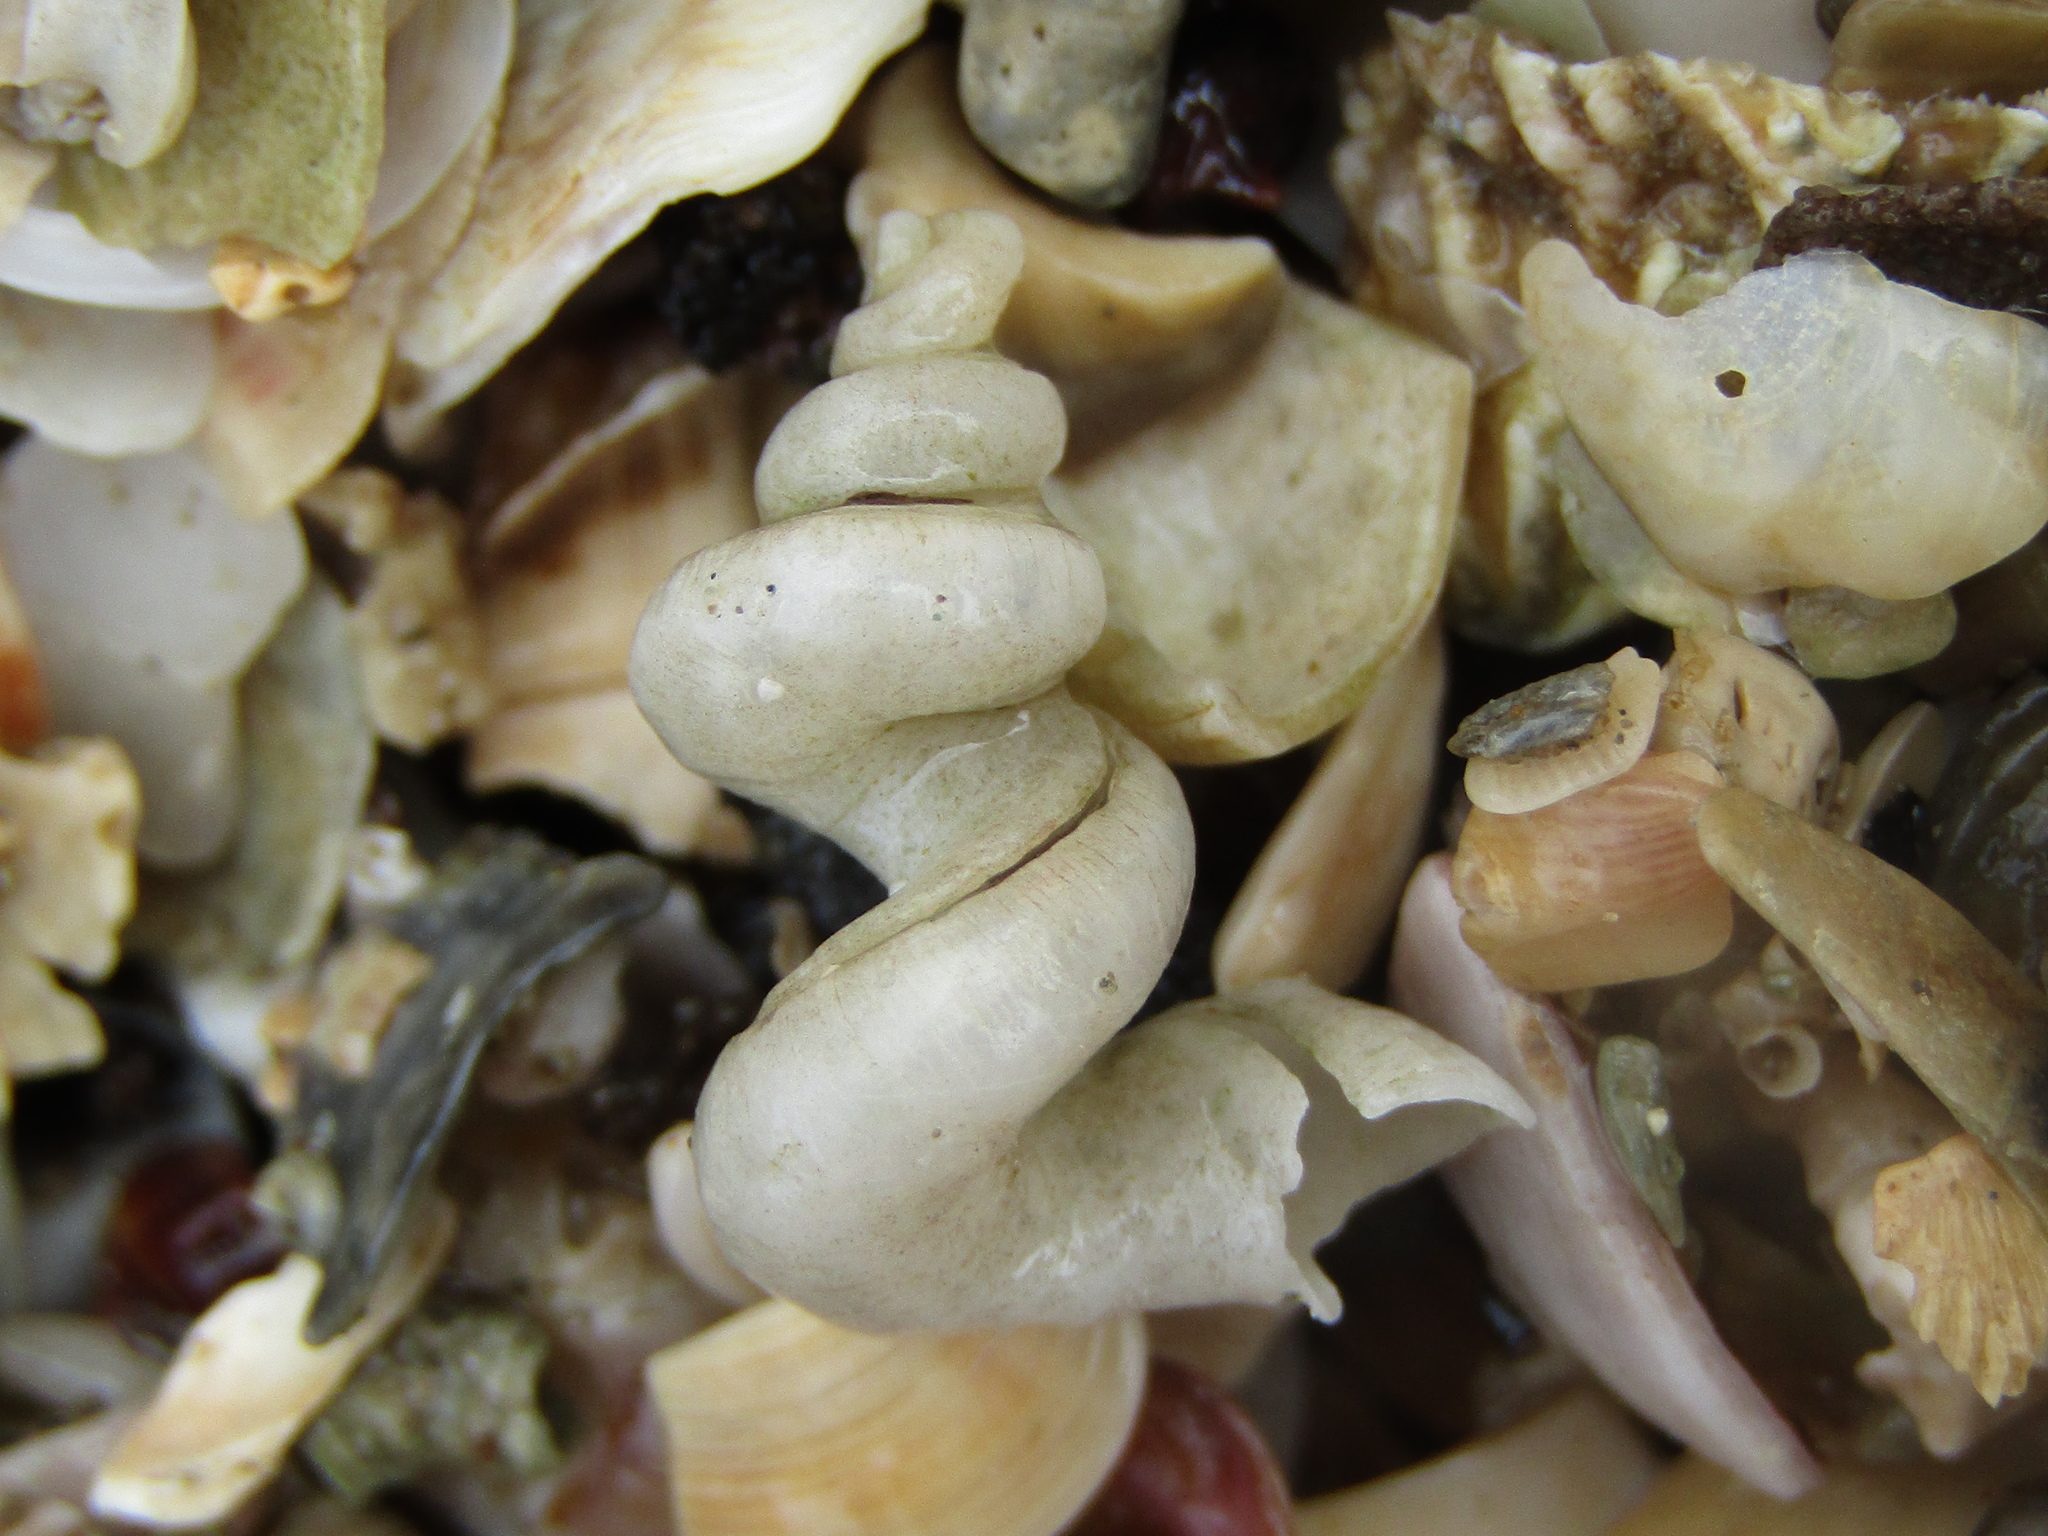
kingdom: Animalia
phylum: Mollusca
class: Gastropoda
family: Siliquariidae
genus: Tenagodus
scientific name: Tenagodus weldii
